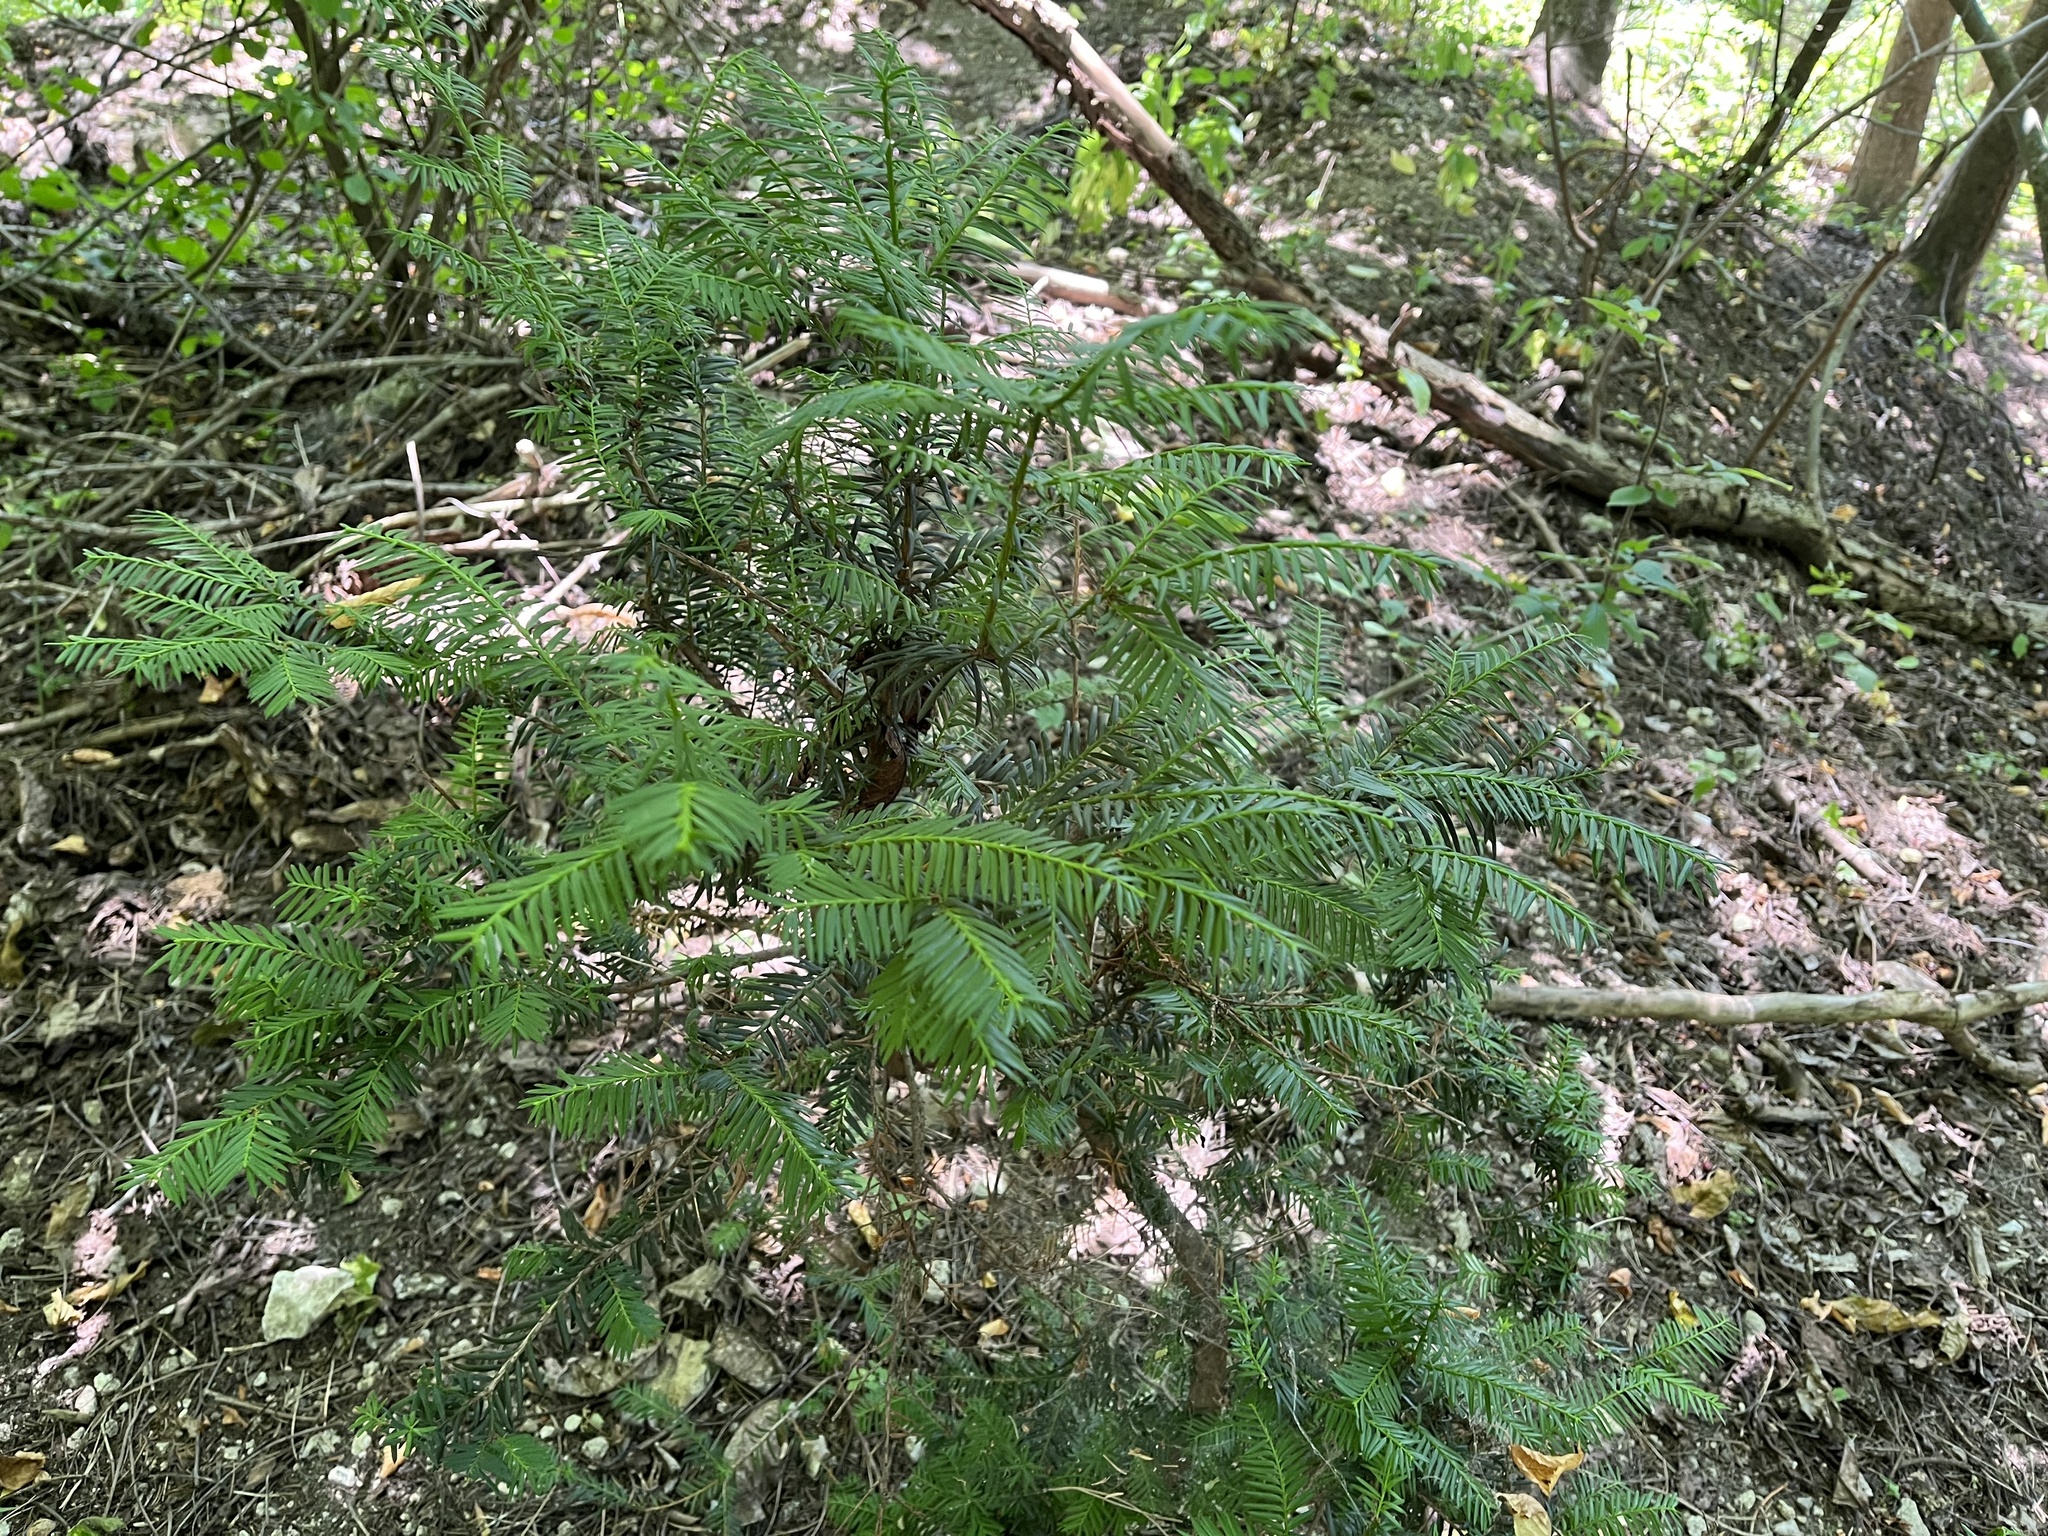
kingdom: Plantae
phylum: Tracheophyta
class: Pinopsida
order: Pinales
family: Taxaceae
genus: Taxus
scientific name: Taxus baccata
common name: Yew
